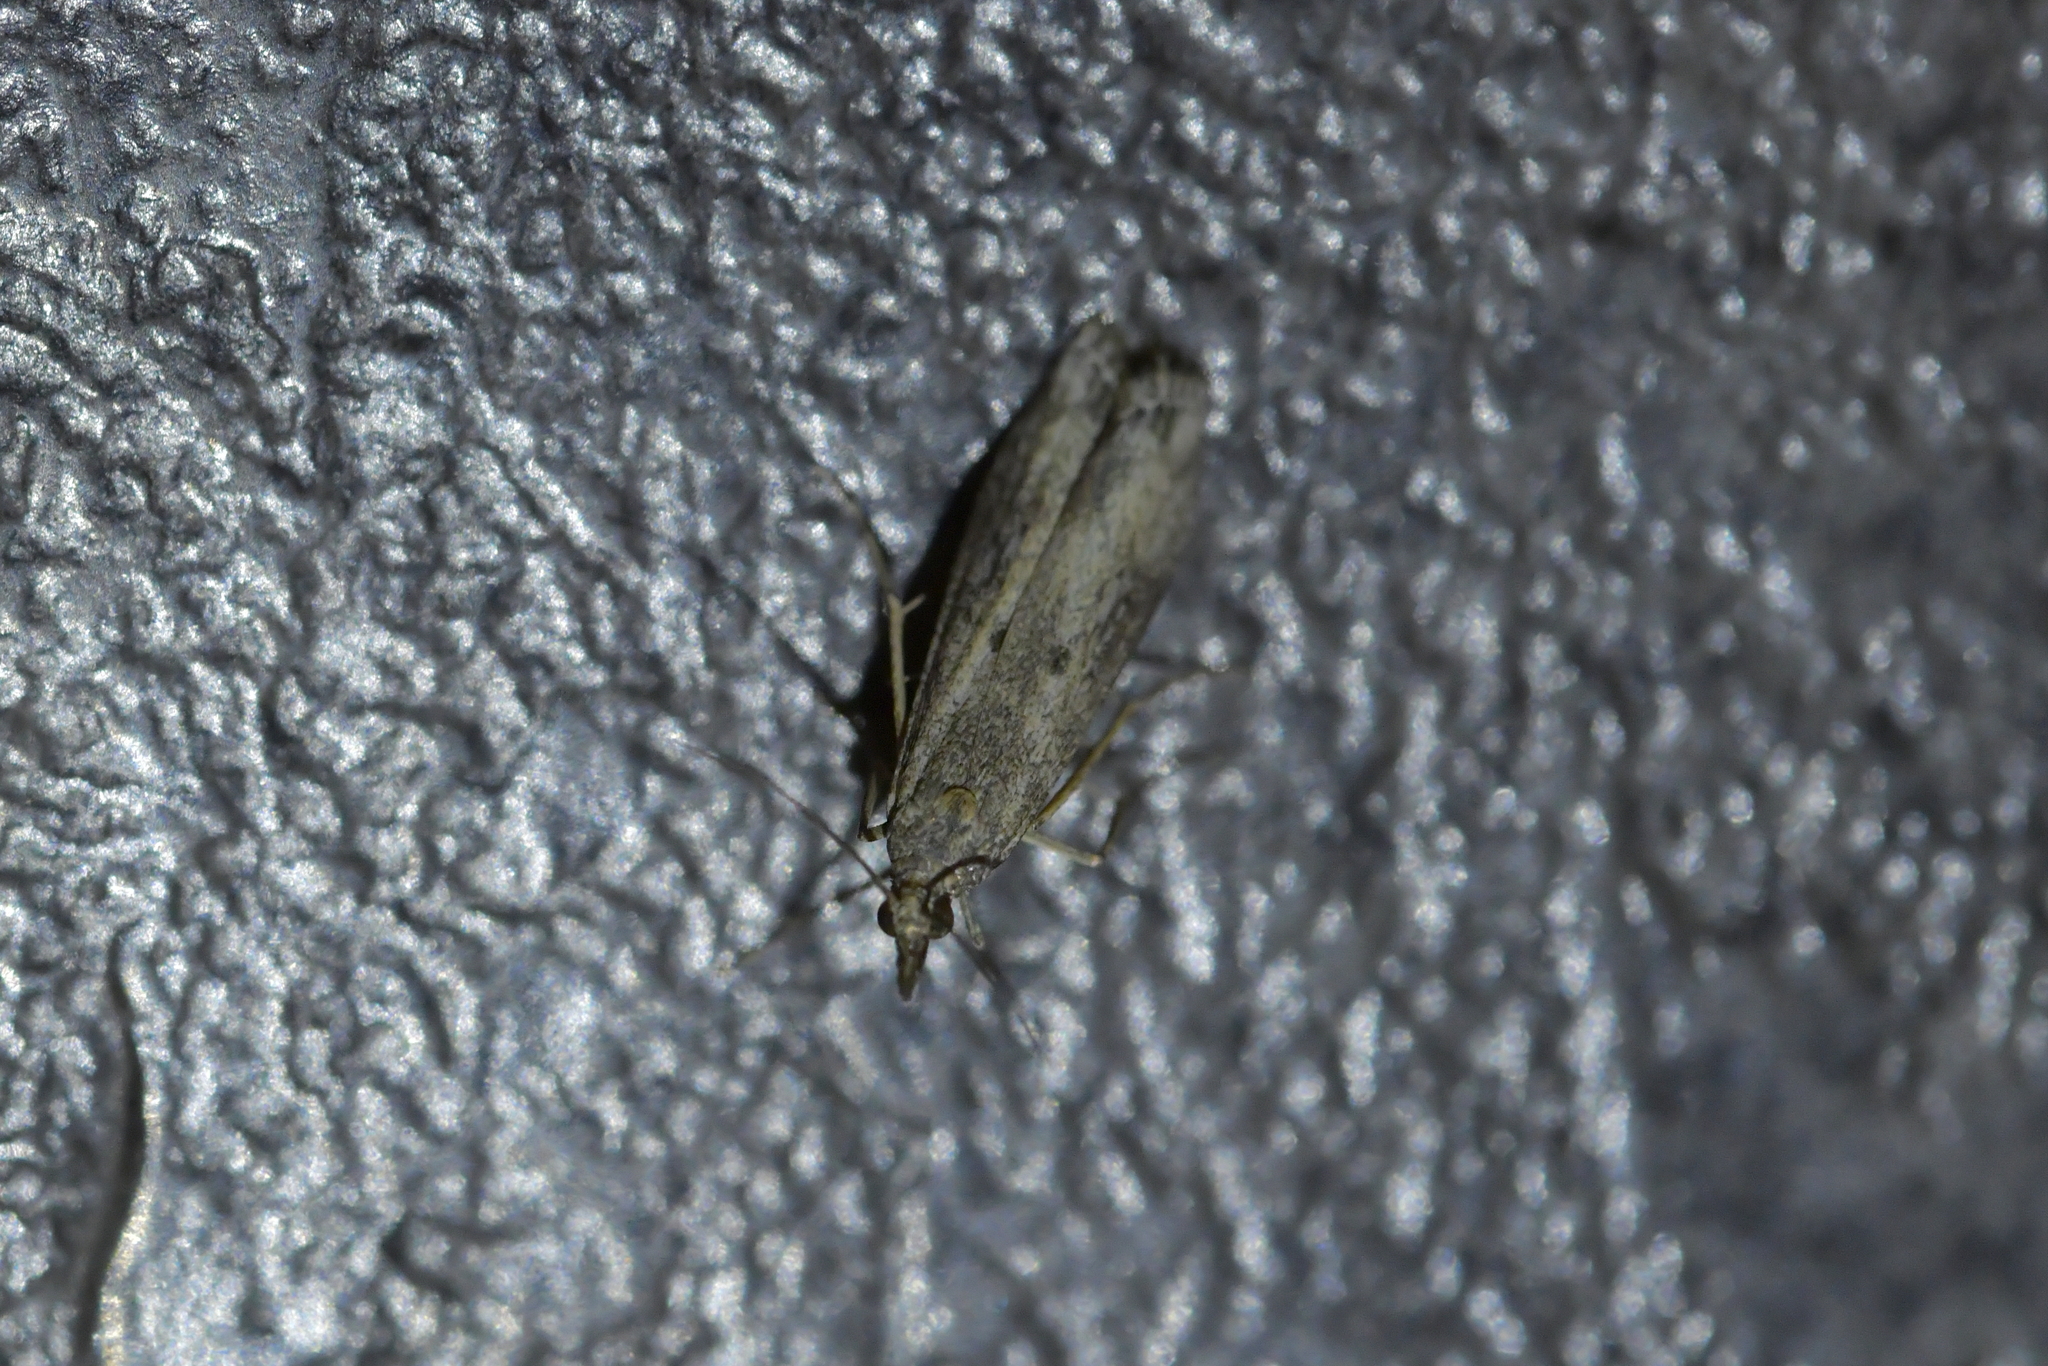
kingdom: Animalia
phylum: Arthropoda
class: Insecta
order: Lepidoptera
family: Crambidae
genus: Eudonia
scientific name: Eudonia leptalea
